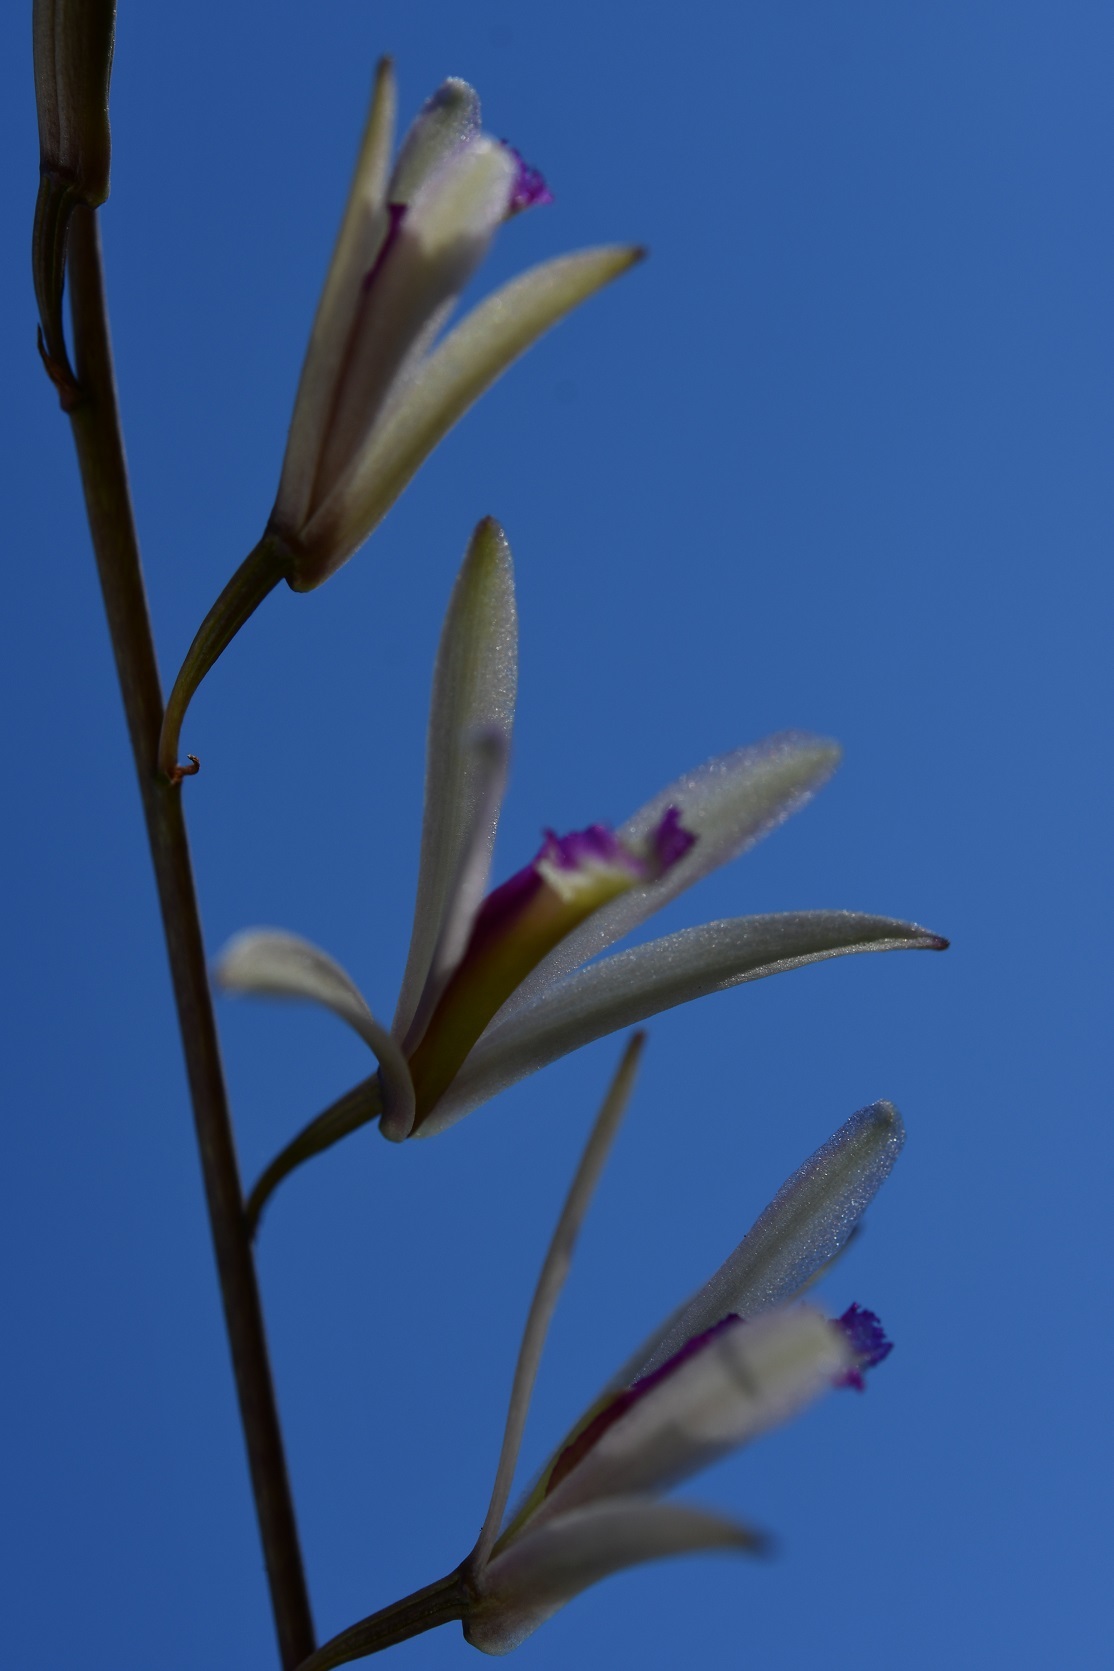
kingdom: Plantae
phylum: Tracheophyta
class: Liliopsida
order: Asparagales
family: Orchidaceae
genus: Bletia
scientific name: Bletia parkinsonii
